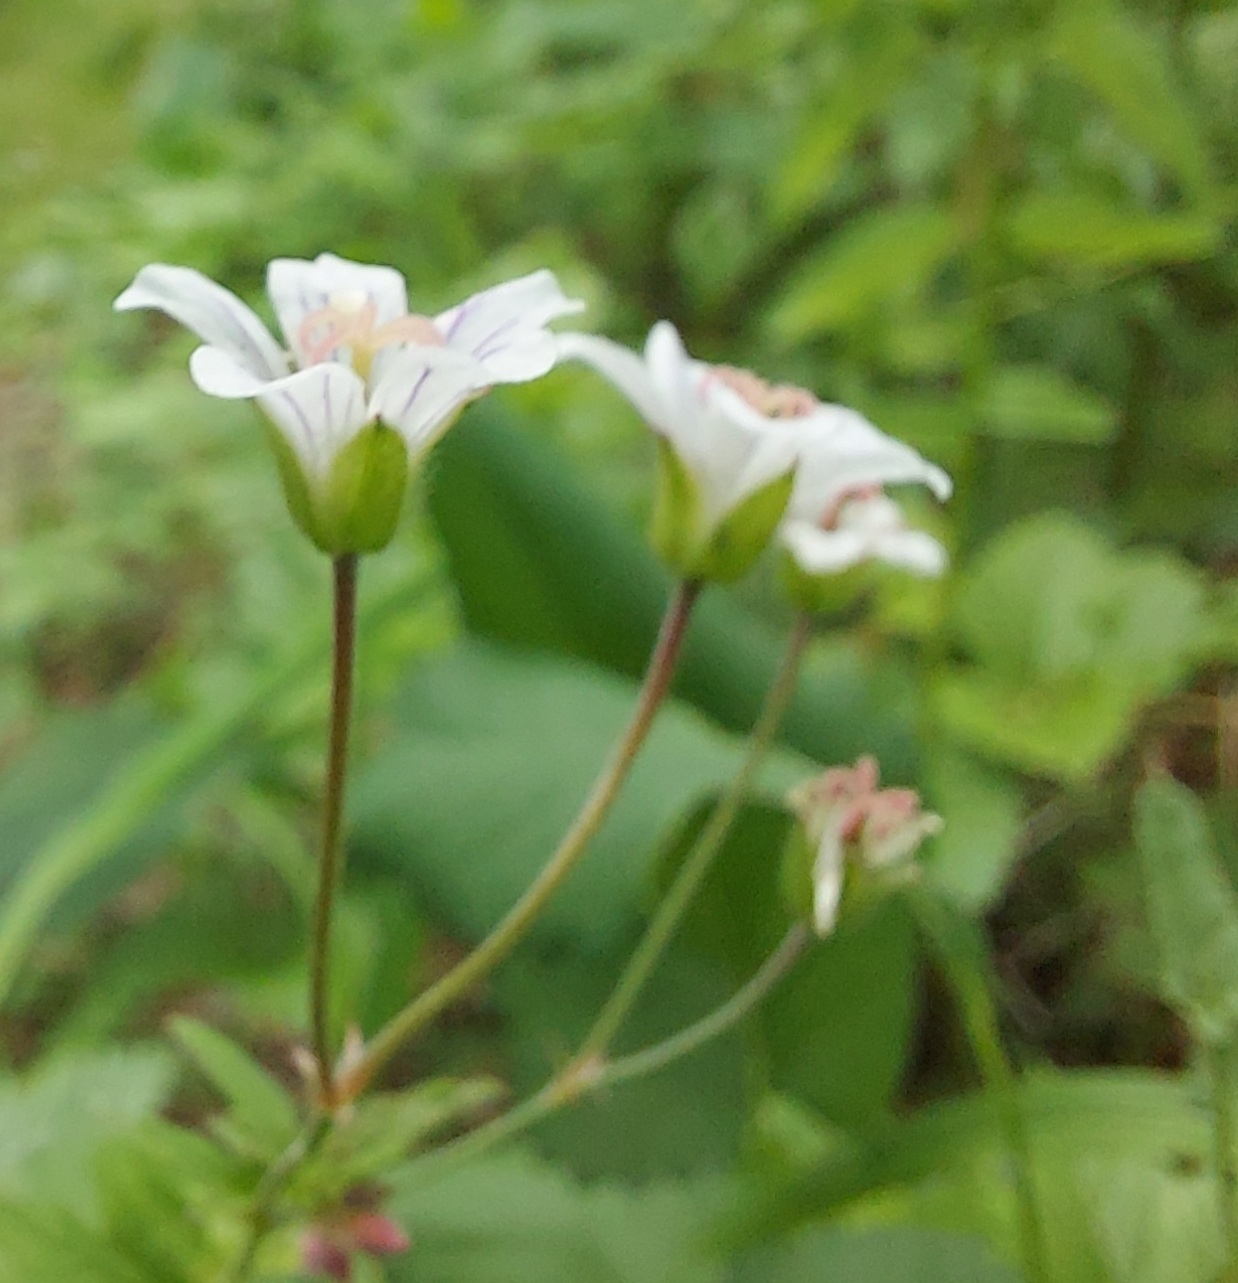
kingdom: Plantae
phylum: Tracheophyta
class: Magnoliopsida
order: Geraniales
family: Geraniaceae
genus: Geranium
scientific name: Geranium pseudosibiricum
